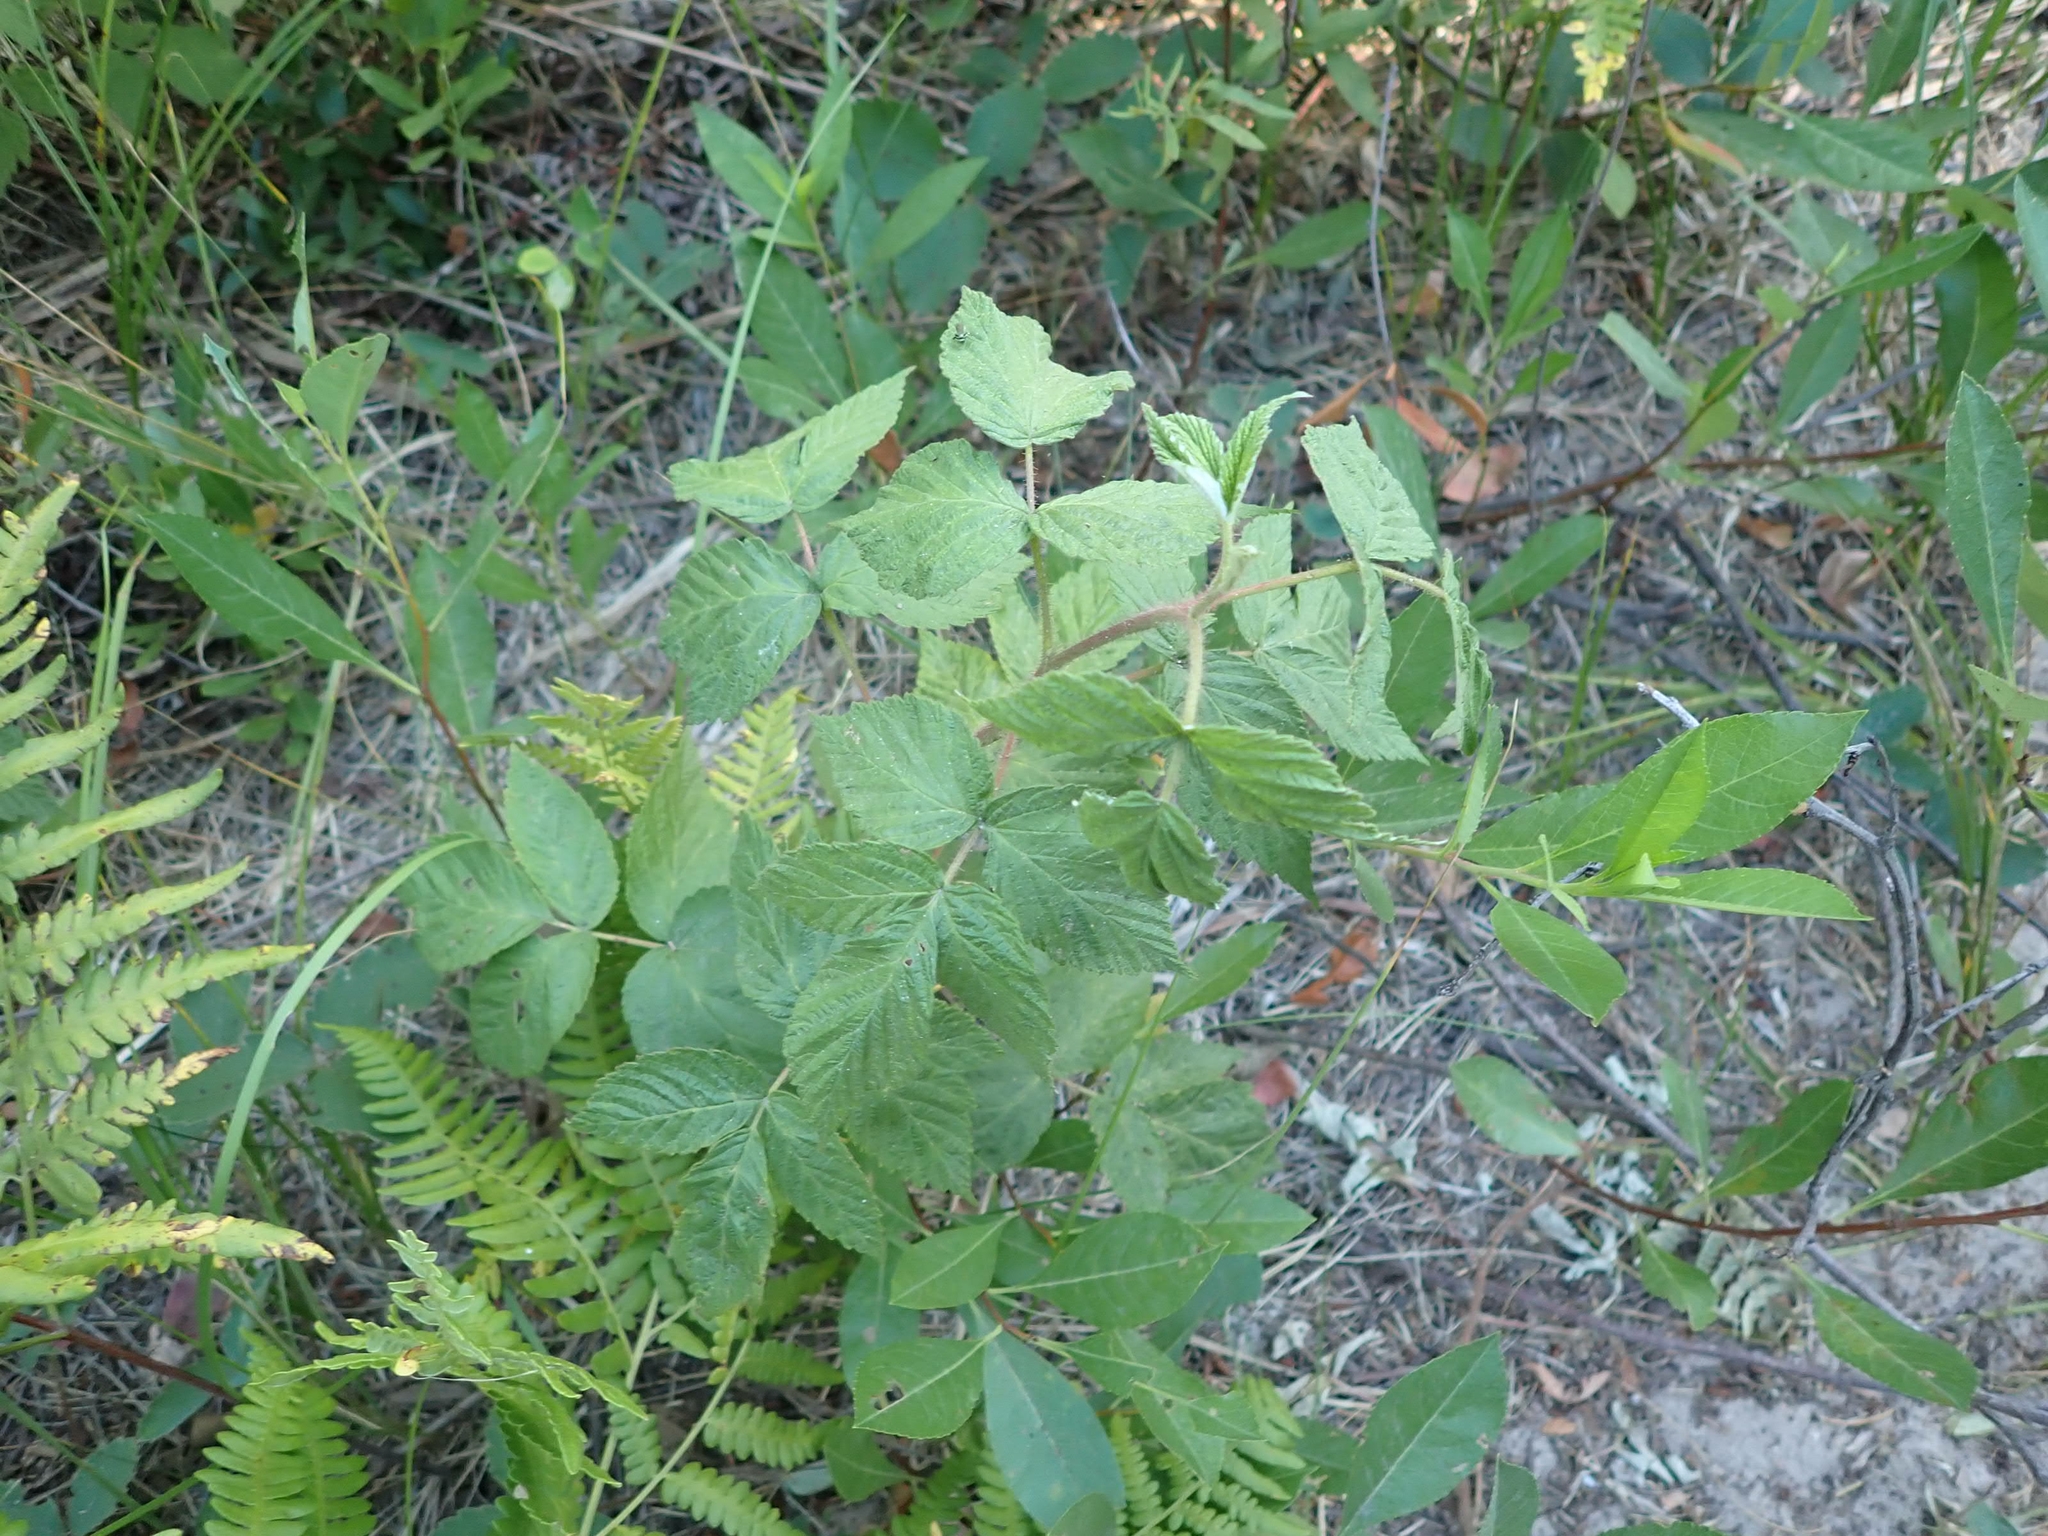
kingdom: Plantae
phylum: Tracheophyta
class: Magnoliopsida
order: Rosales
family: Rosaceae
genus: Rubus
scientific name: Rubus idaeus
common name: Raspberry
